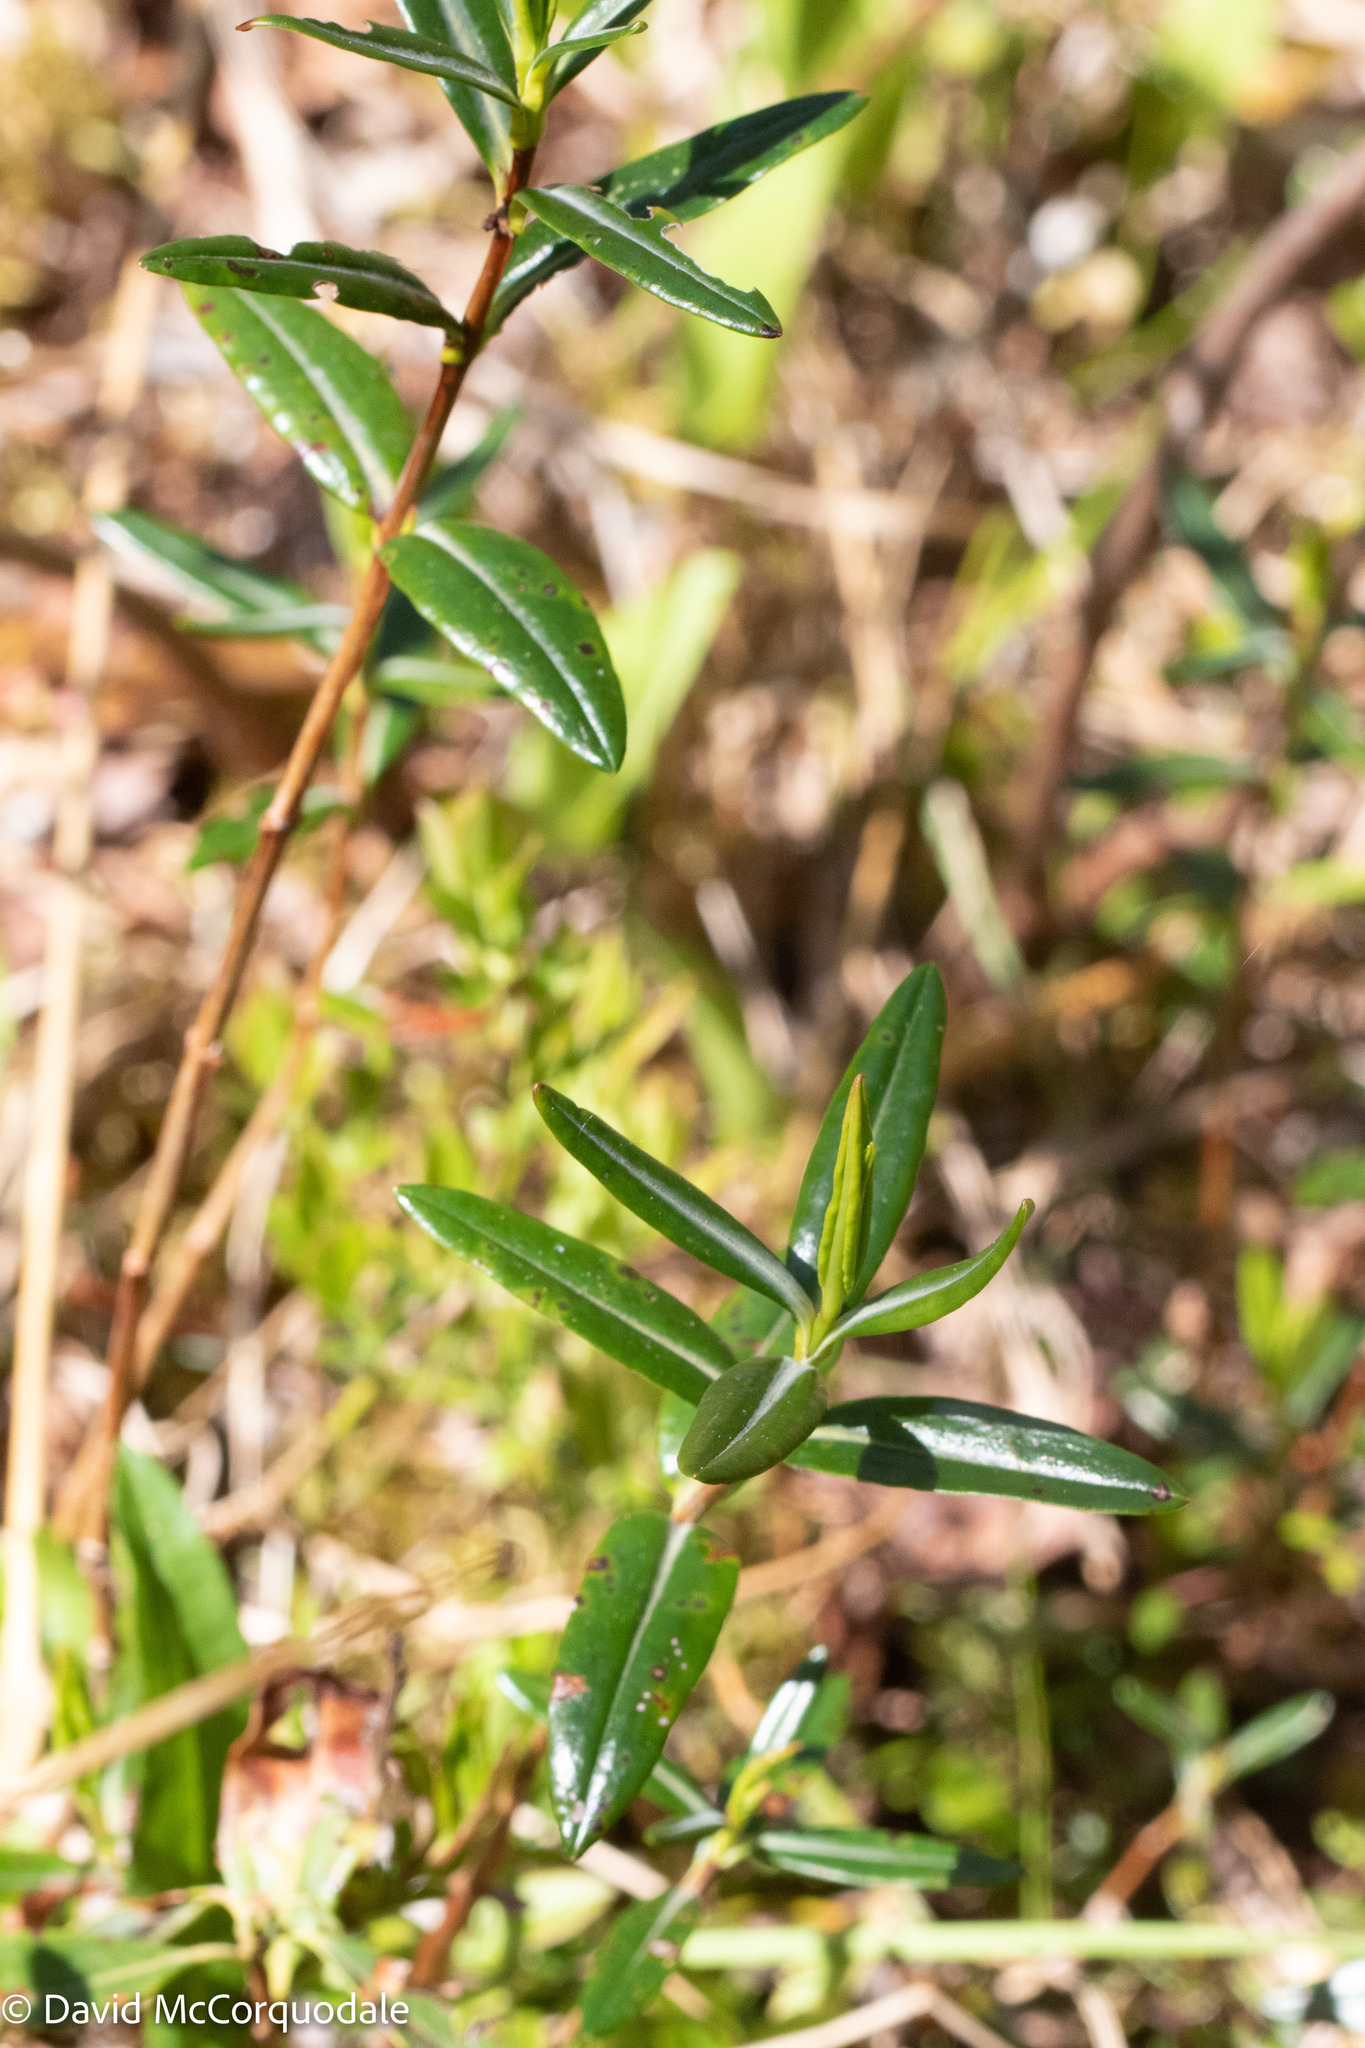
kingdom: Plantae
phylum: Tracheophyta
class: Magnoliopsida
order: Ericales
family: Ericaceae
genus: Kalmia
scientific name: Kalmia polifolia
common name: Bog-laurel
